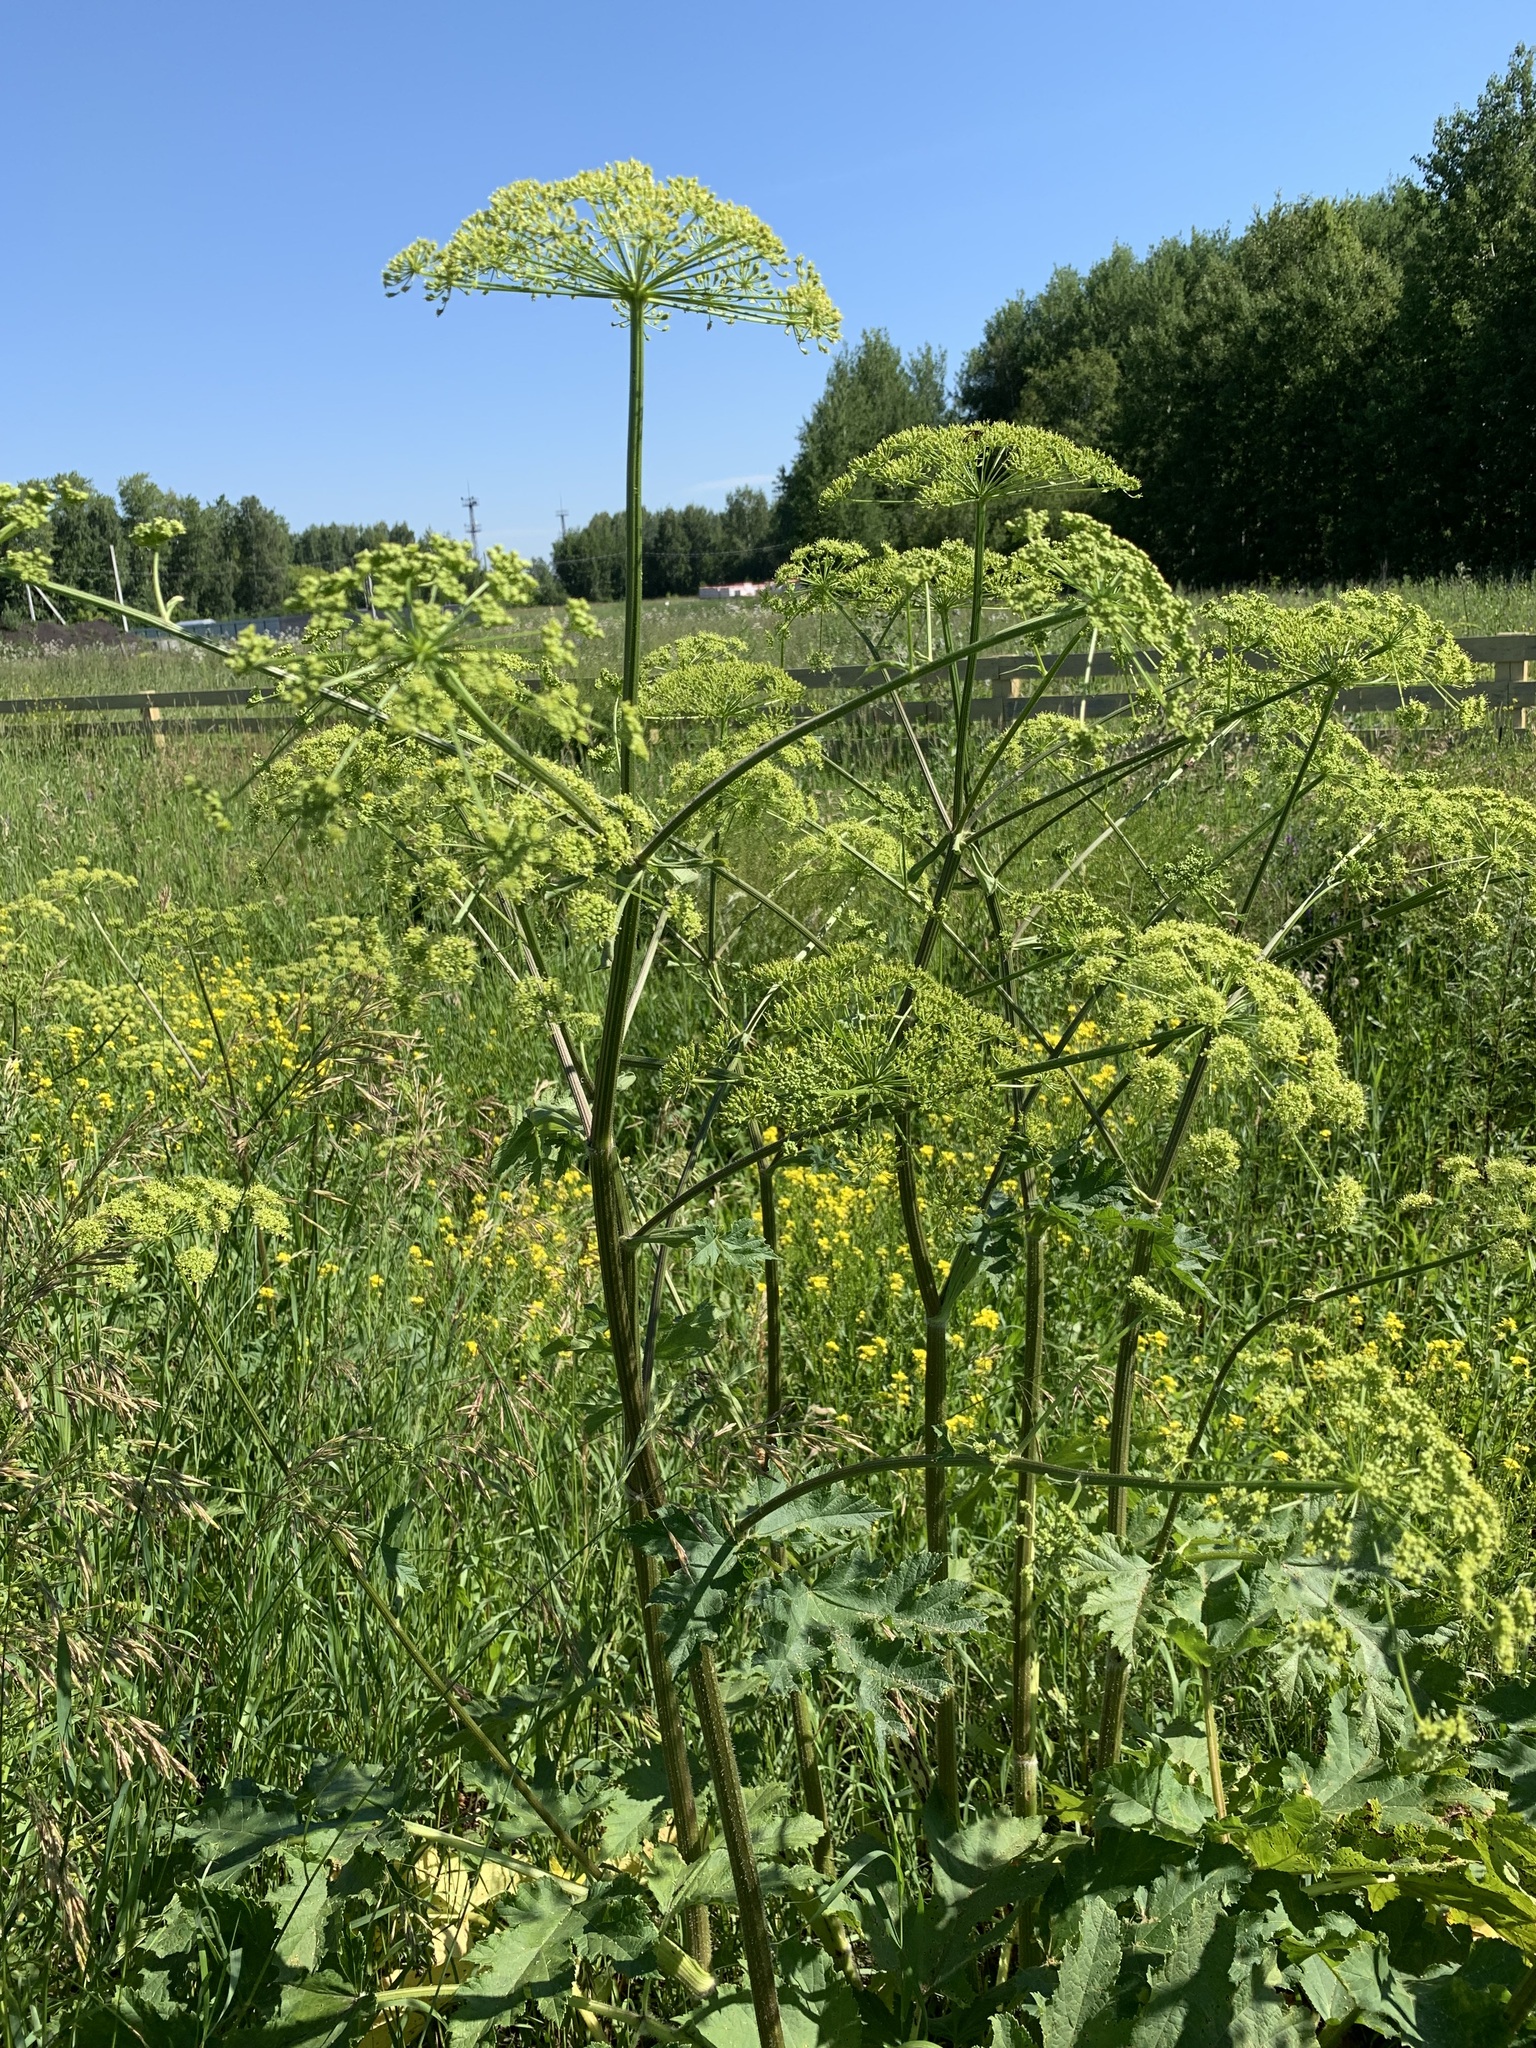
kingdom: Plantae
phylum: Tracheophyta
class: Magnoliopsida
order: Apiales
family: Apiaceae
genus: Heracleum
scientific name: Heracleum sphondylium
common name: Hogweed
